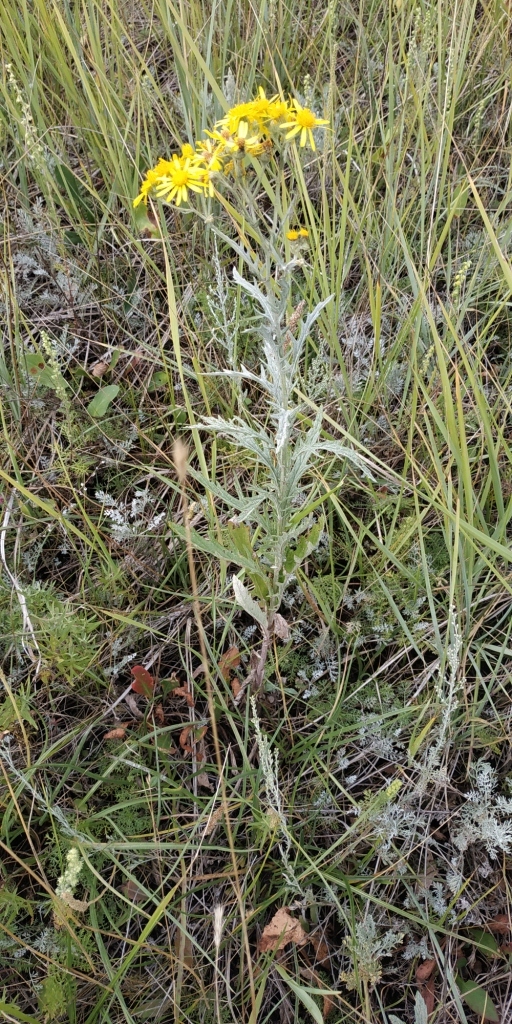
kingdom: Plantae
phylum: Tracheophyta
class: Magnoliopsida
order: Asterales
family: Asteraceae
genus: Jacobaea
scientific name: Jacobaea erucifolia
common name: Hoary ragwort
